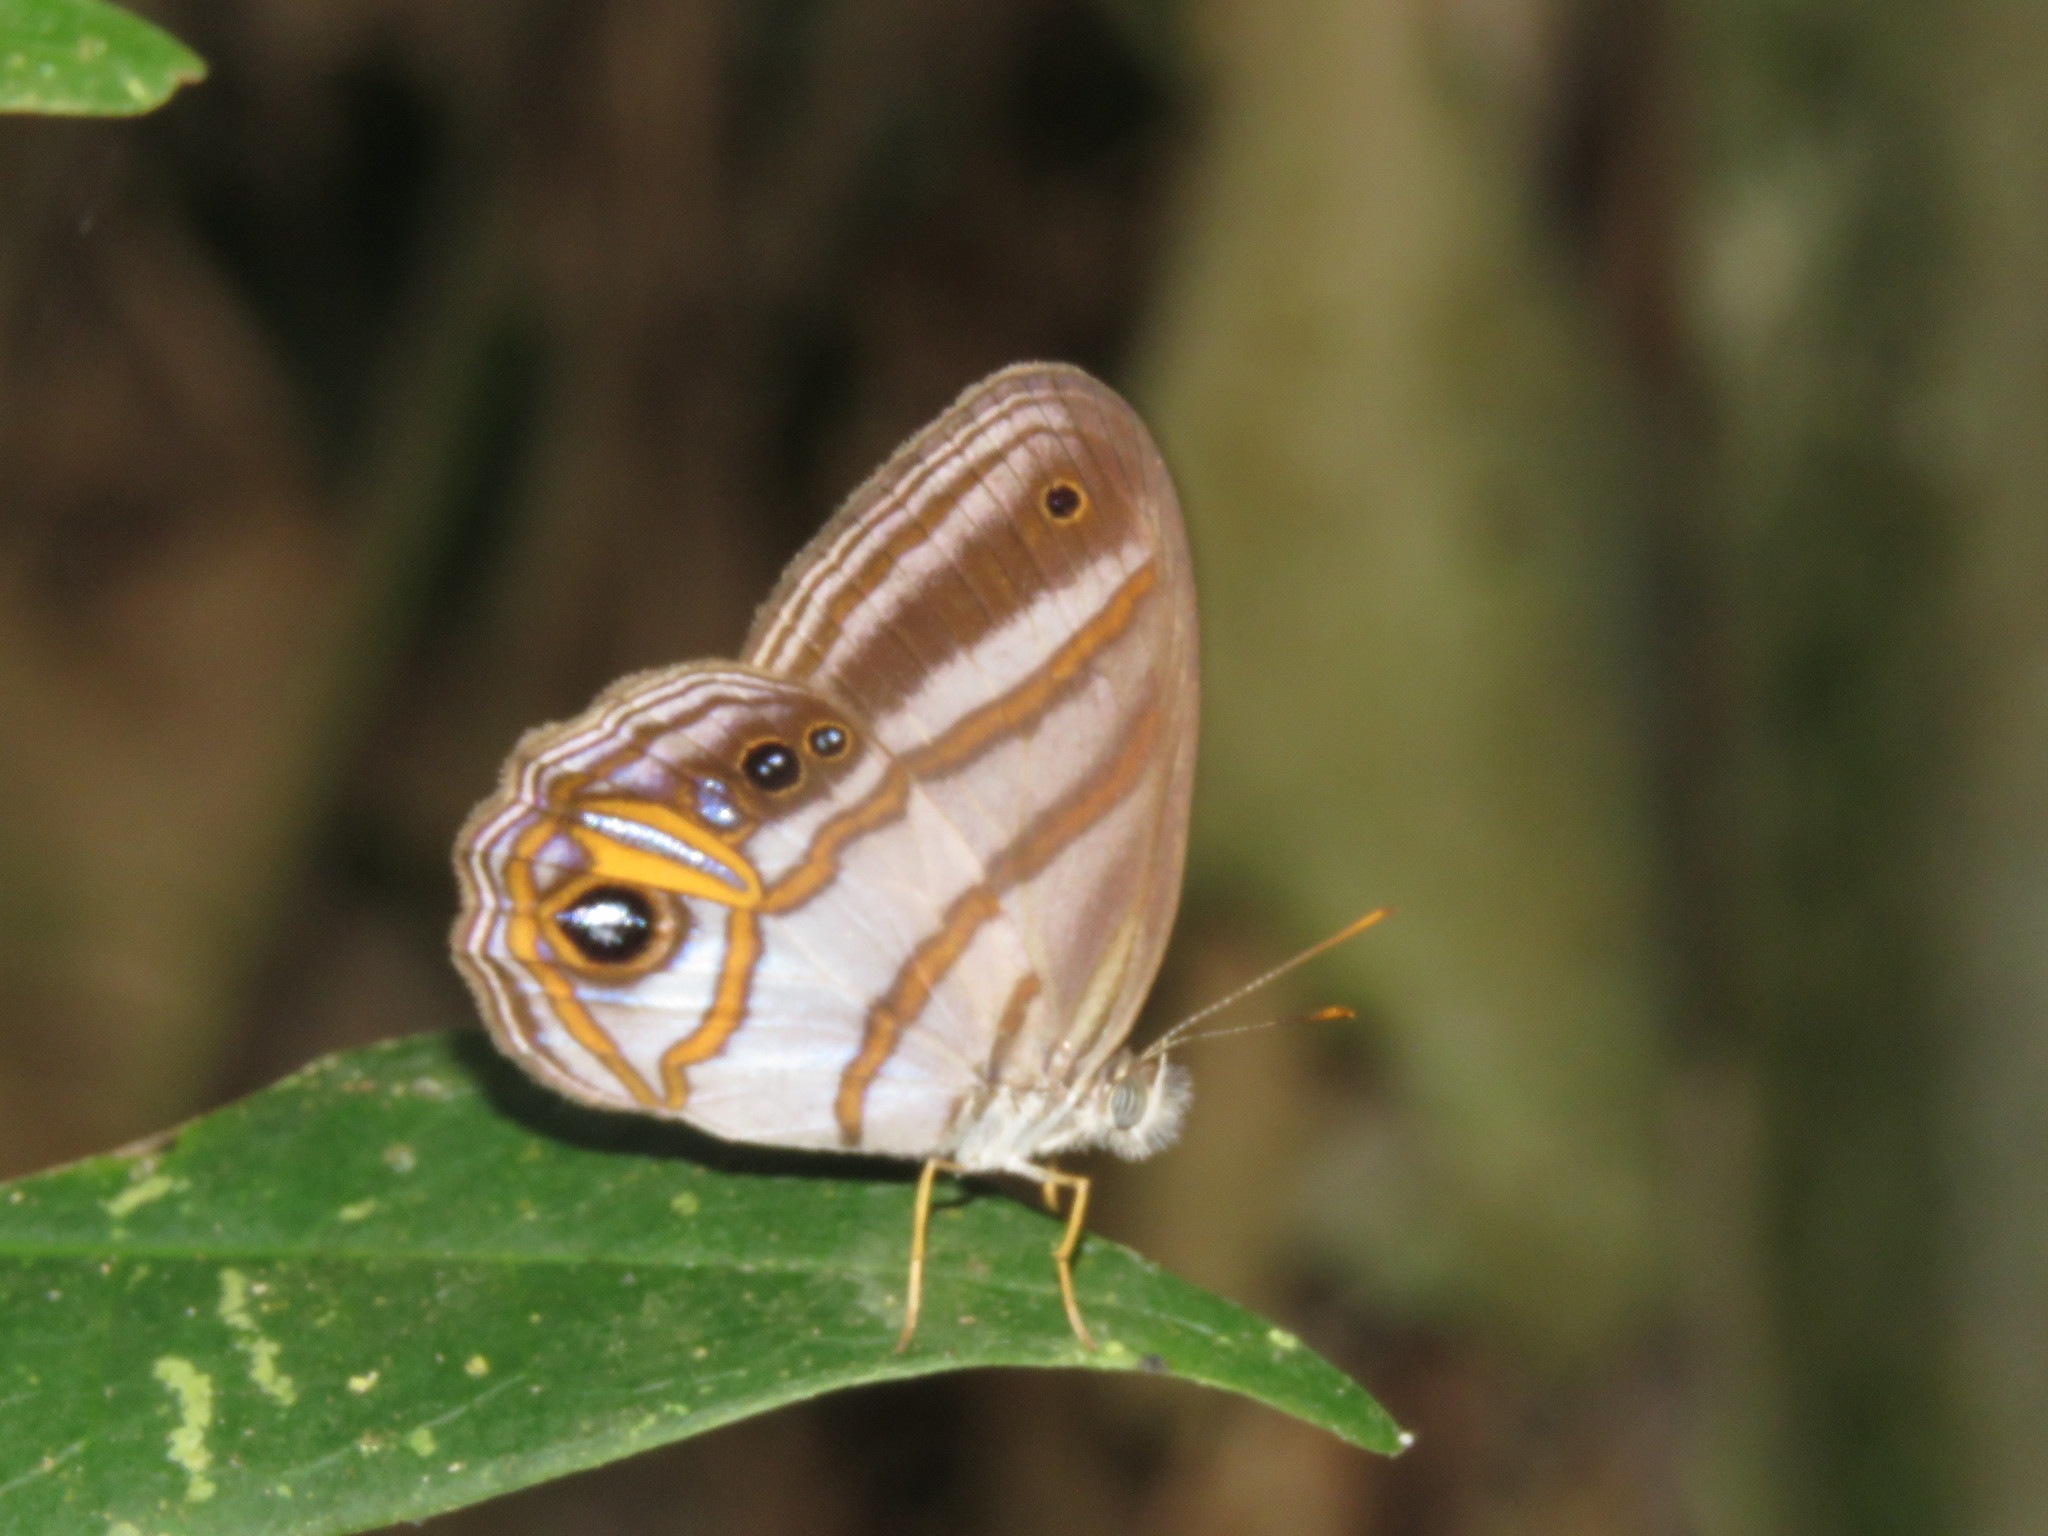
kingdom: Animalia
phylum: Arthropoda
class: Insecta
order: Lepidoptera
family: Nymphalidae
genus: Chloreuptychia
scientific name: Chloreuptychia chloris
